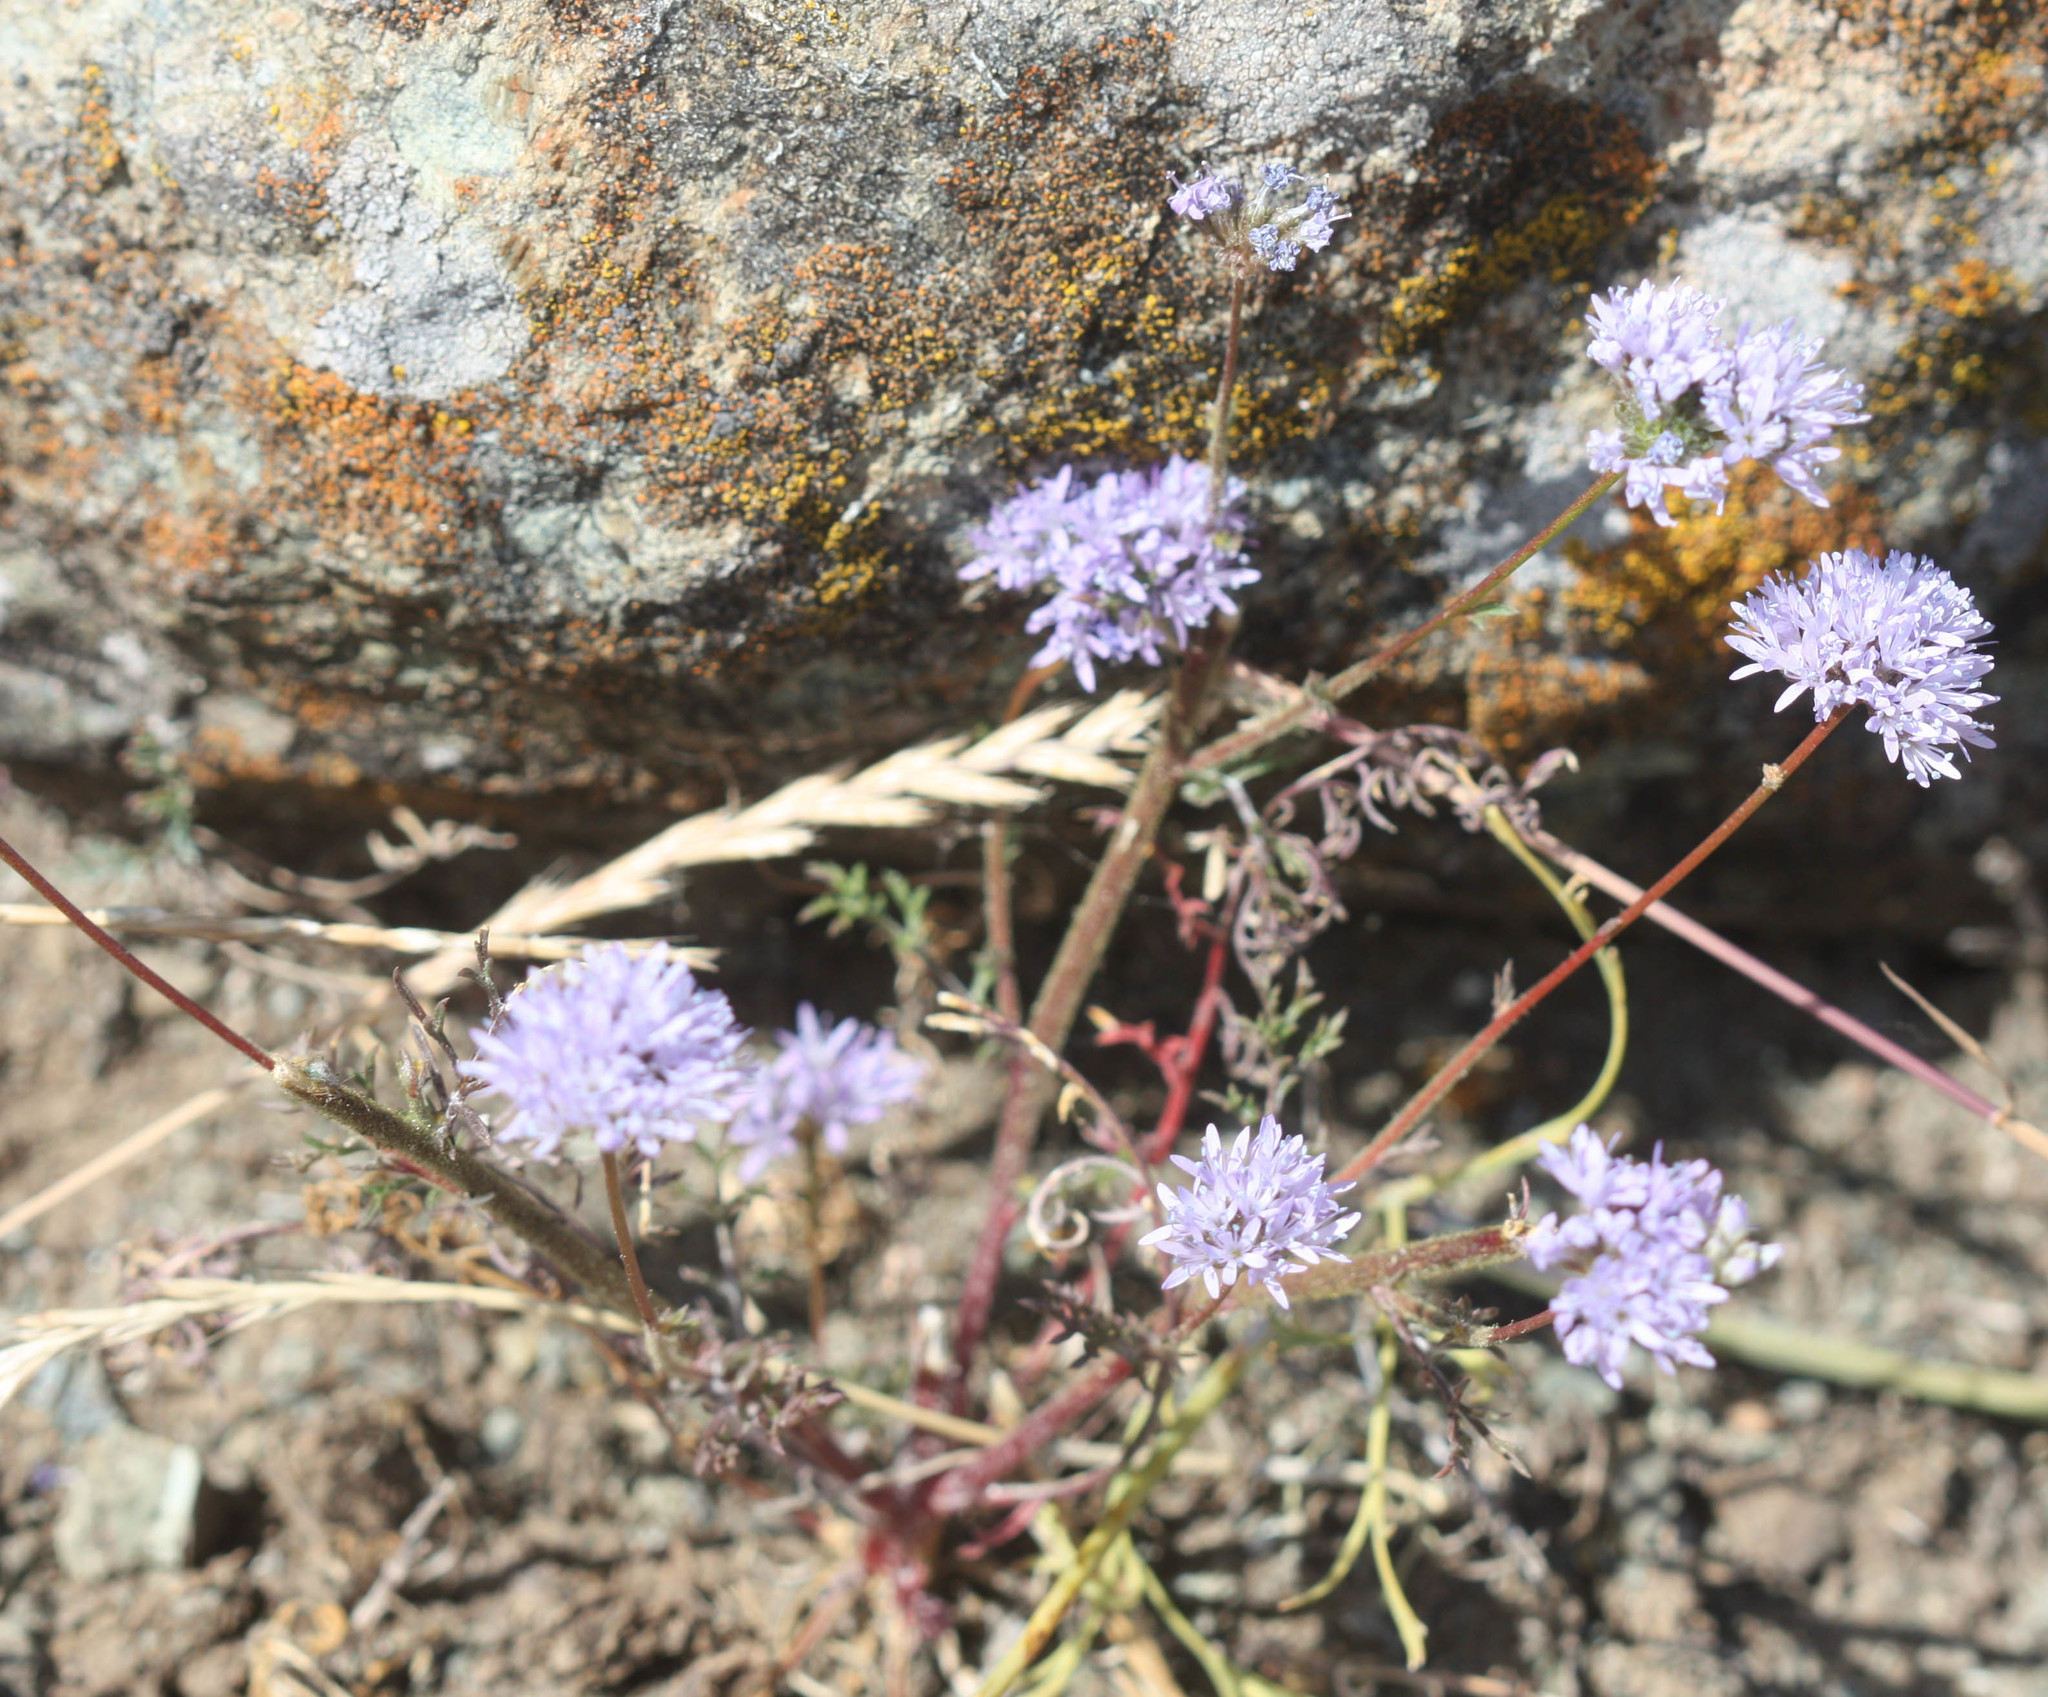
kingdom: Plantae
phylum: Tracheophyta
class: Magnoliopsida
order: Ericales
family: Polemoniaceae
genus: Gilia
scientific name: Gilia capitata
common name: Bluehead gilia
